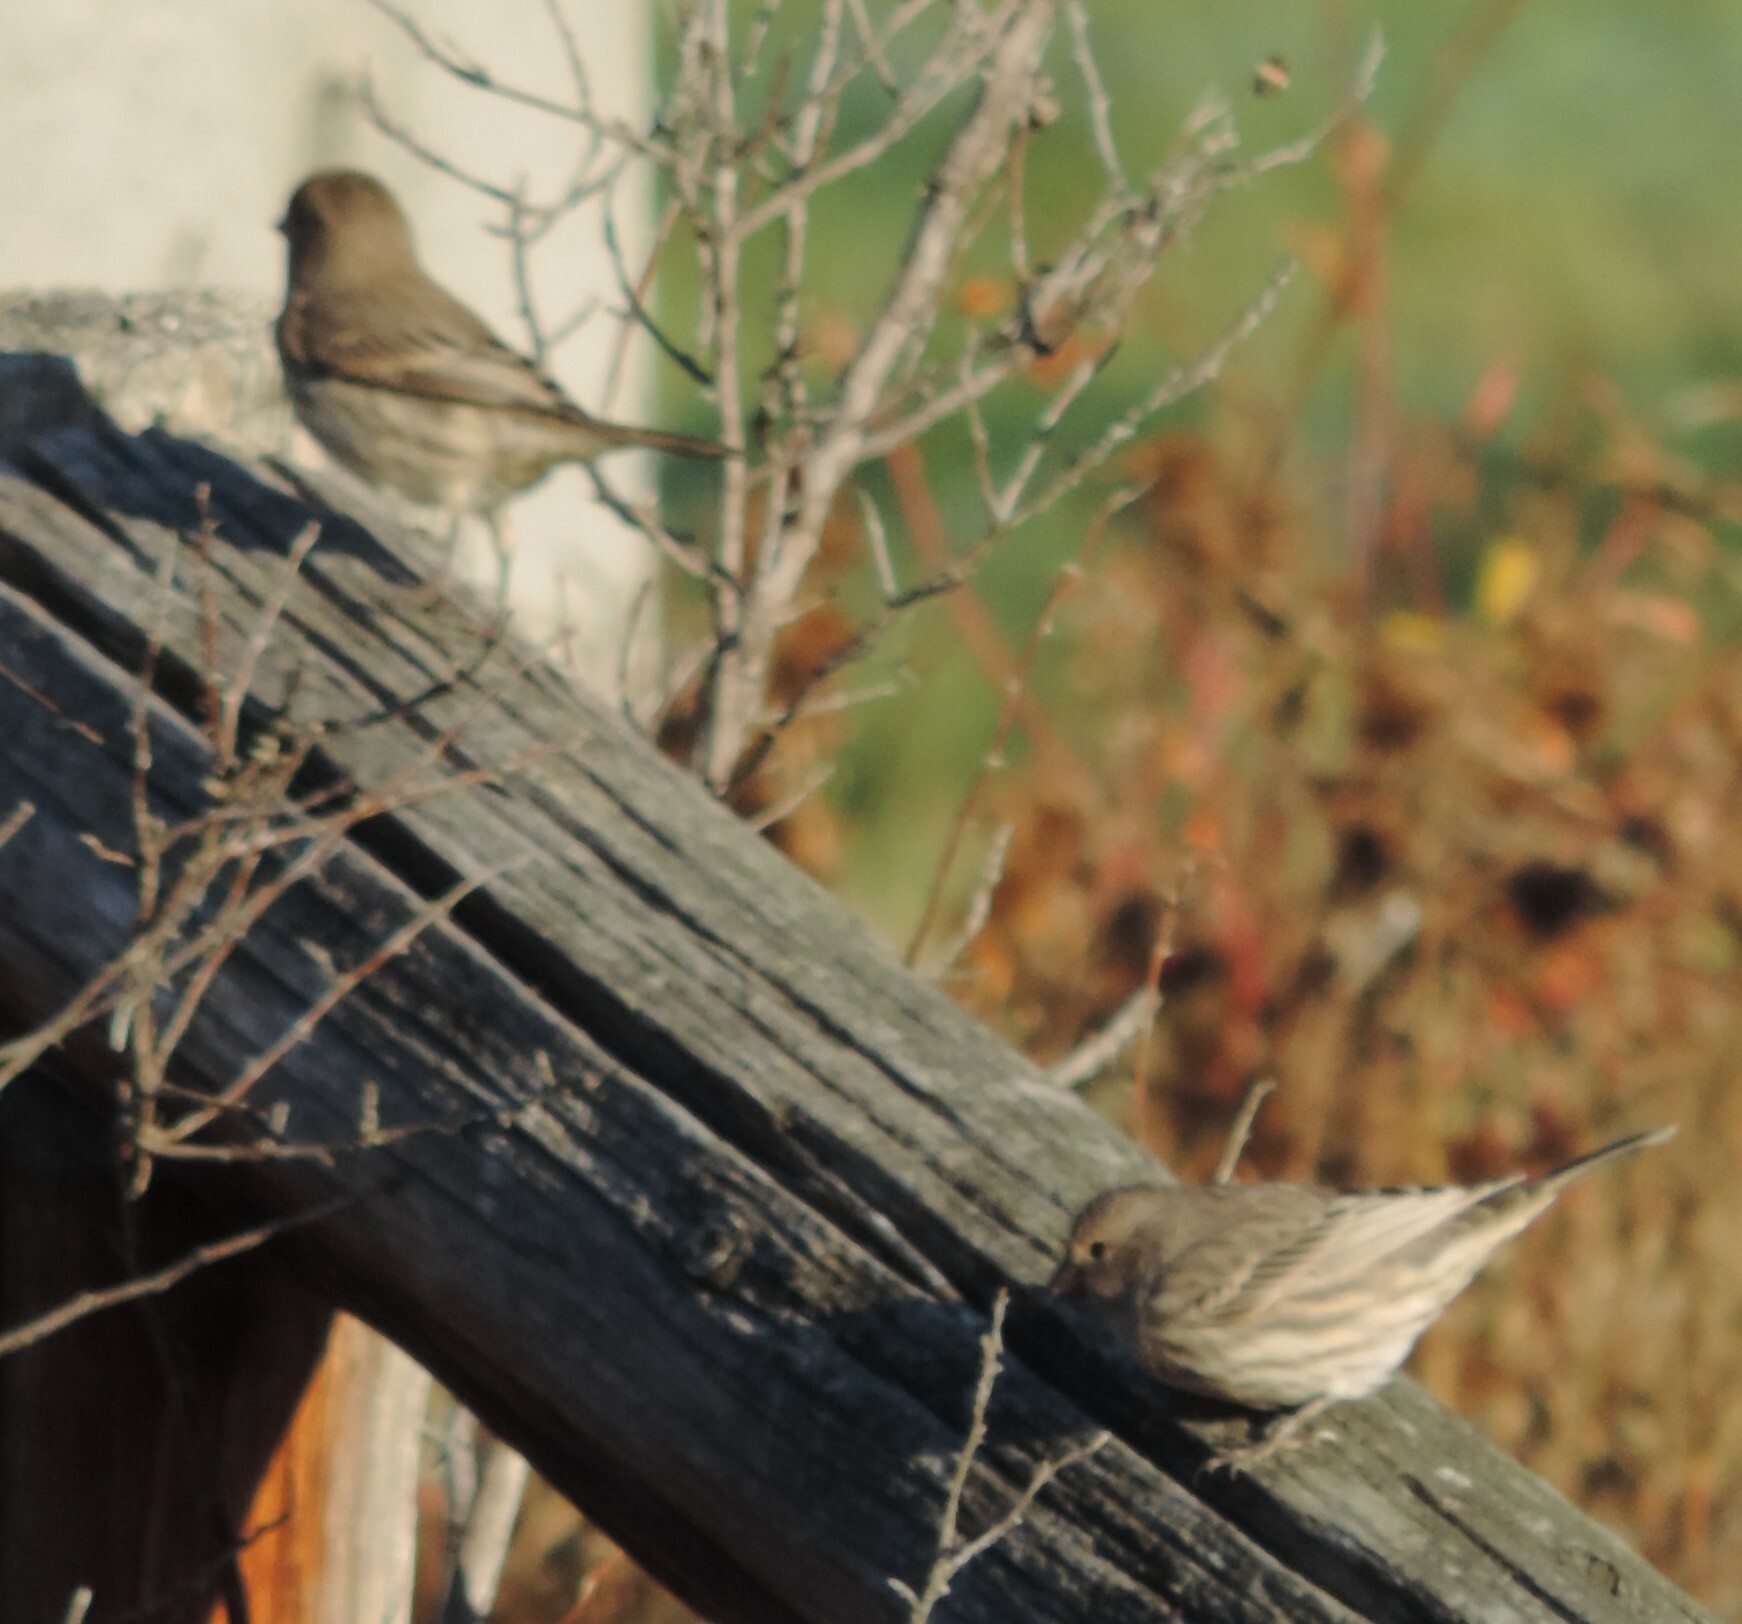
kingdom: Animalia
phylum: Chordata
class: Aves
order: Passeriformes
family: Fringillidae
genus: Haemorhous
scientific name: Haemorhous mexicanus
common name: House finch
